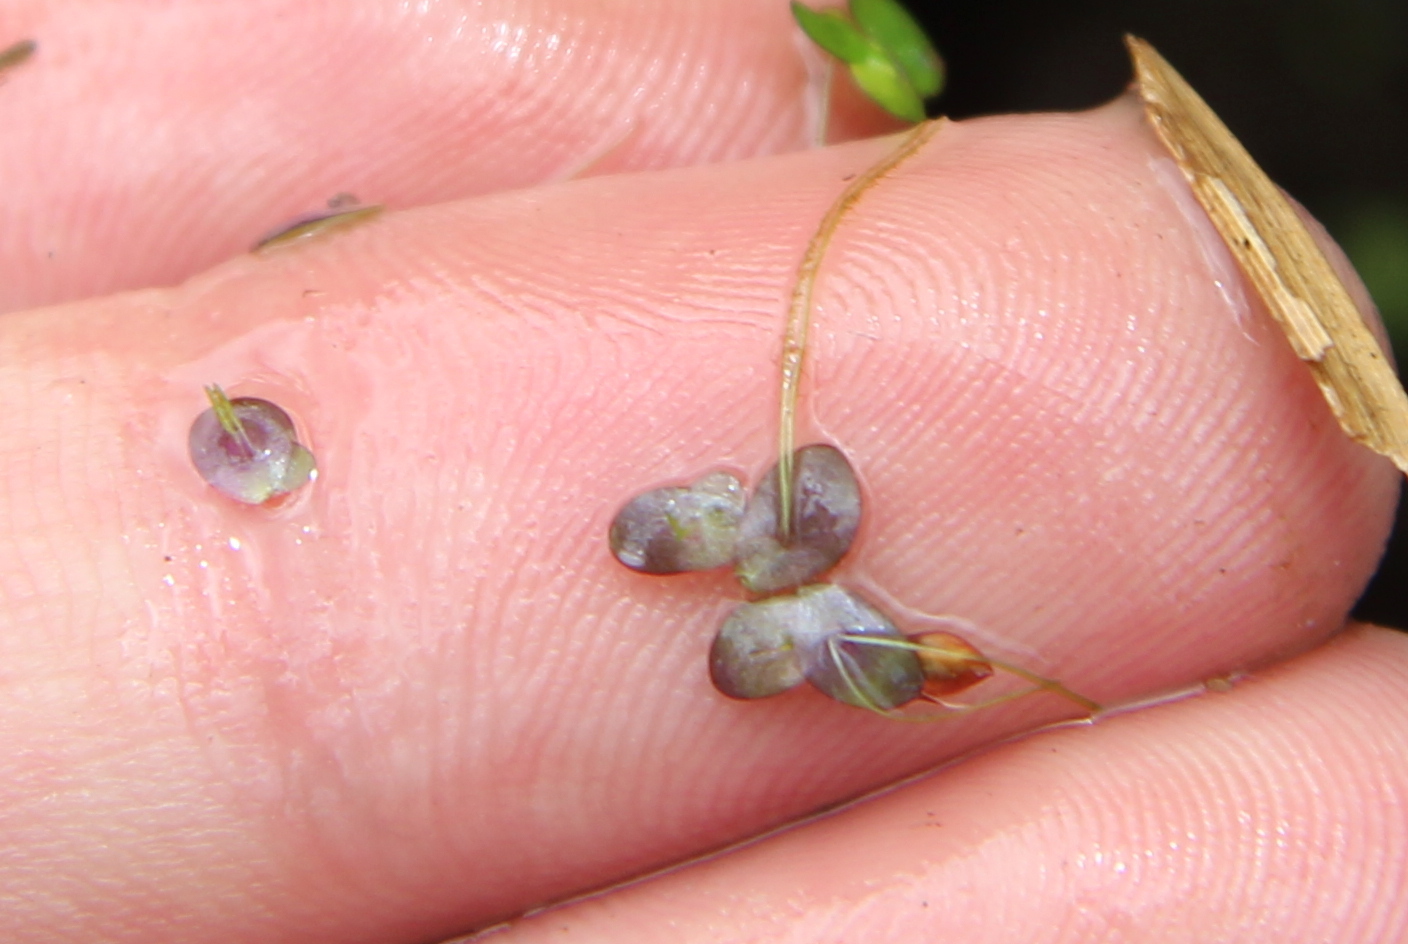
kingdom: Plantae
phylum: Tracheophyta
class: Liliopsida
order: Alismatales
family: Araceae
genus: Spirodela
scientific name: Spirodela punctata
